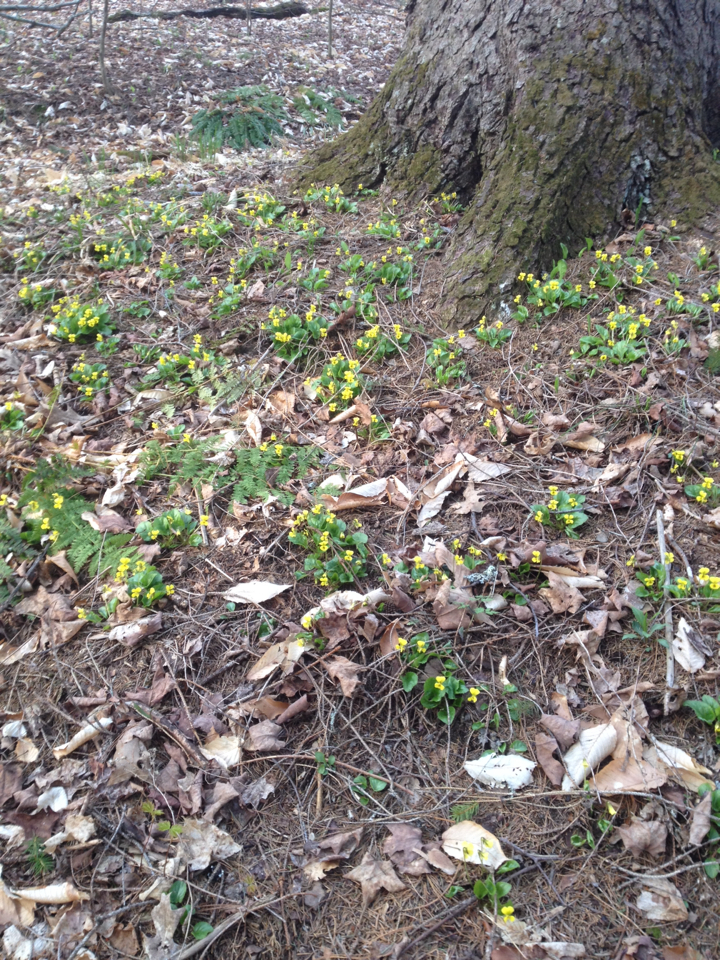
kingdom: Plantae
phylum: Tracheophyta
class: Magnoliopsida
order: Malpighiales
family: Violaceae
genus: Viola
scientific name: Viola rotundifolia
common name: Early yellow violet
